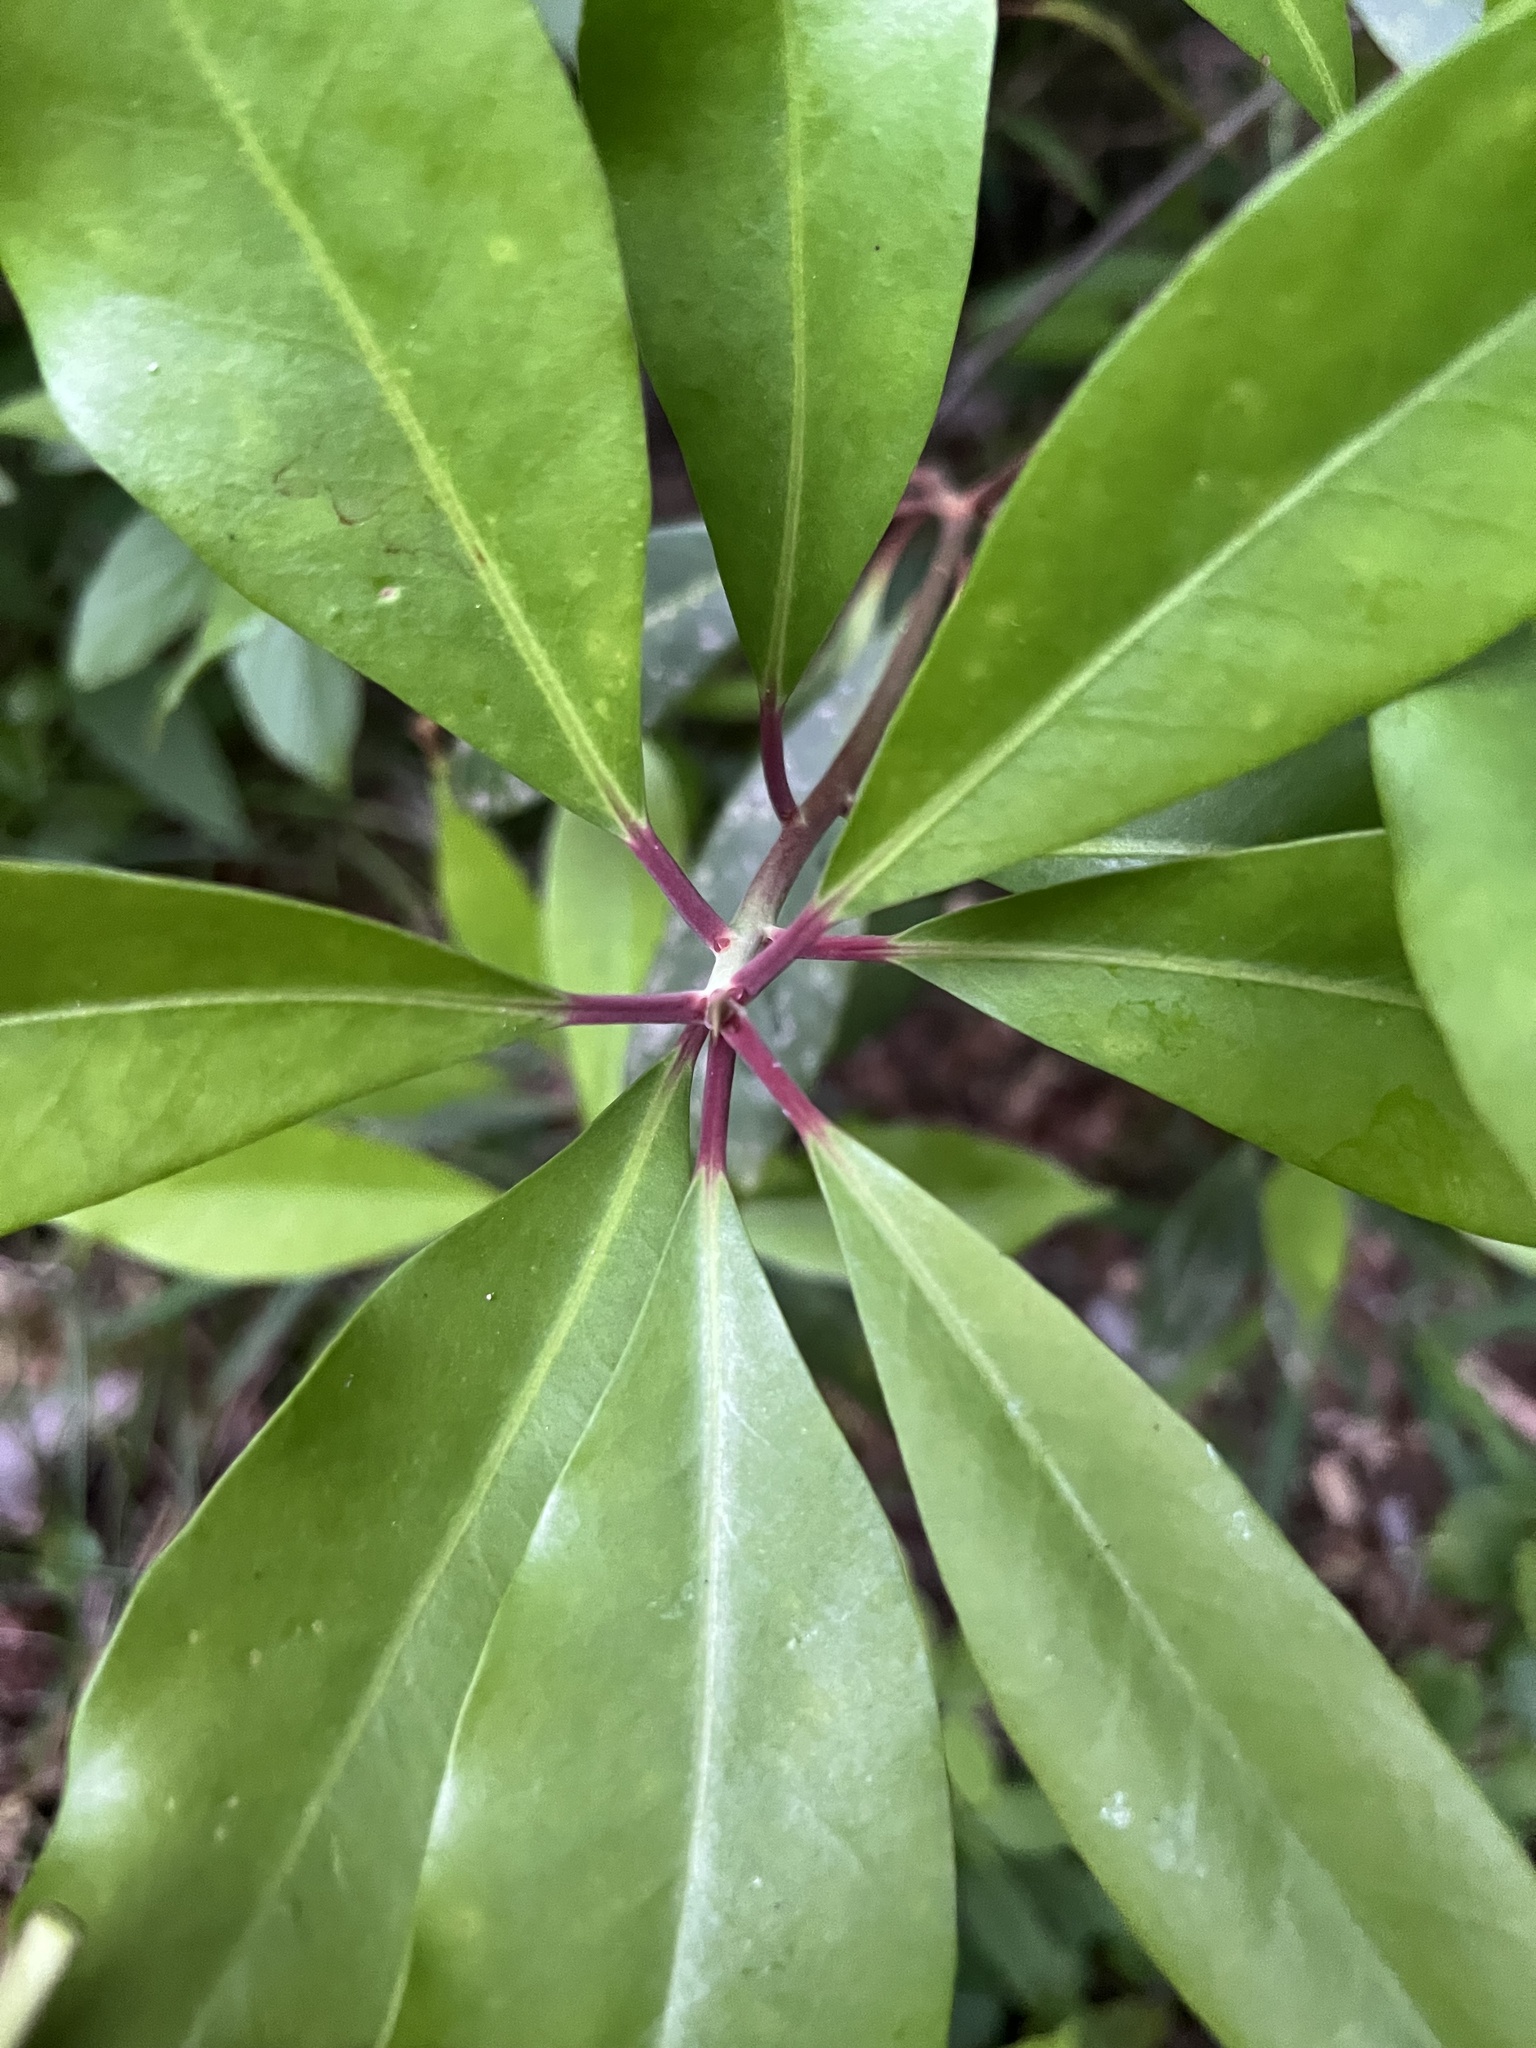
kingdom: Plantae
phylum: Tracheophyta
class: Magnoliopsida
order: Austrobaileyales
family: Schisandraceae
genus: Illicium
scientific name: Illicium floridanum
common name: Florida anisetree
